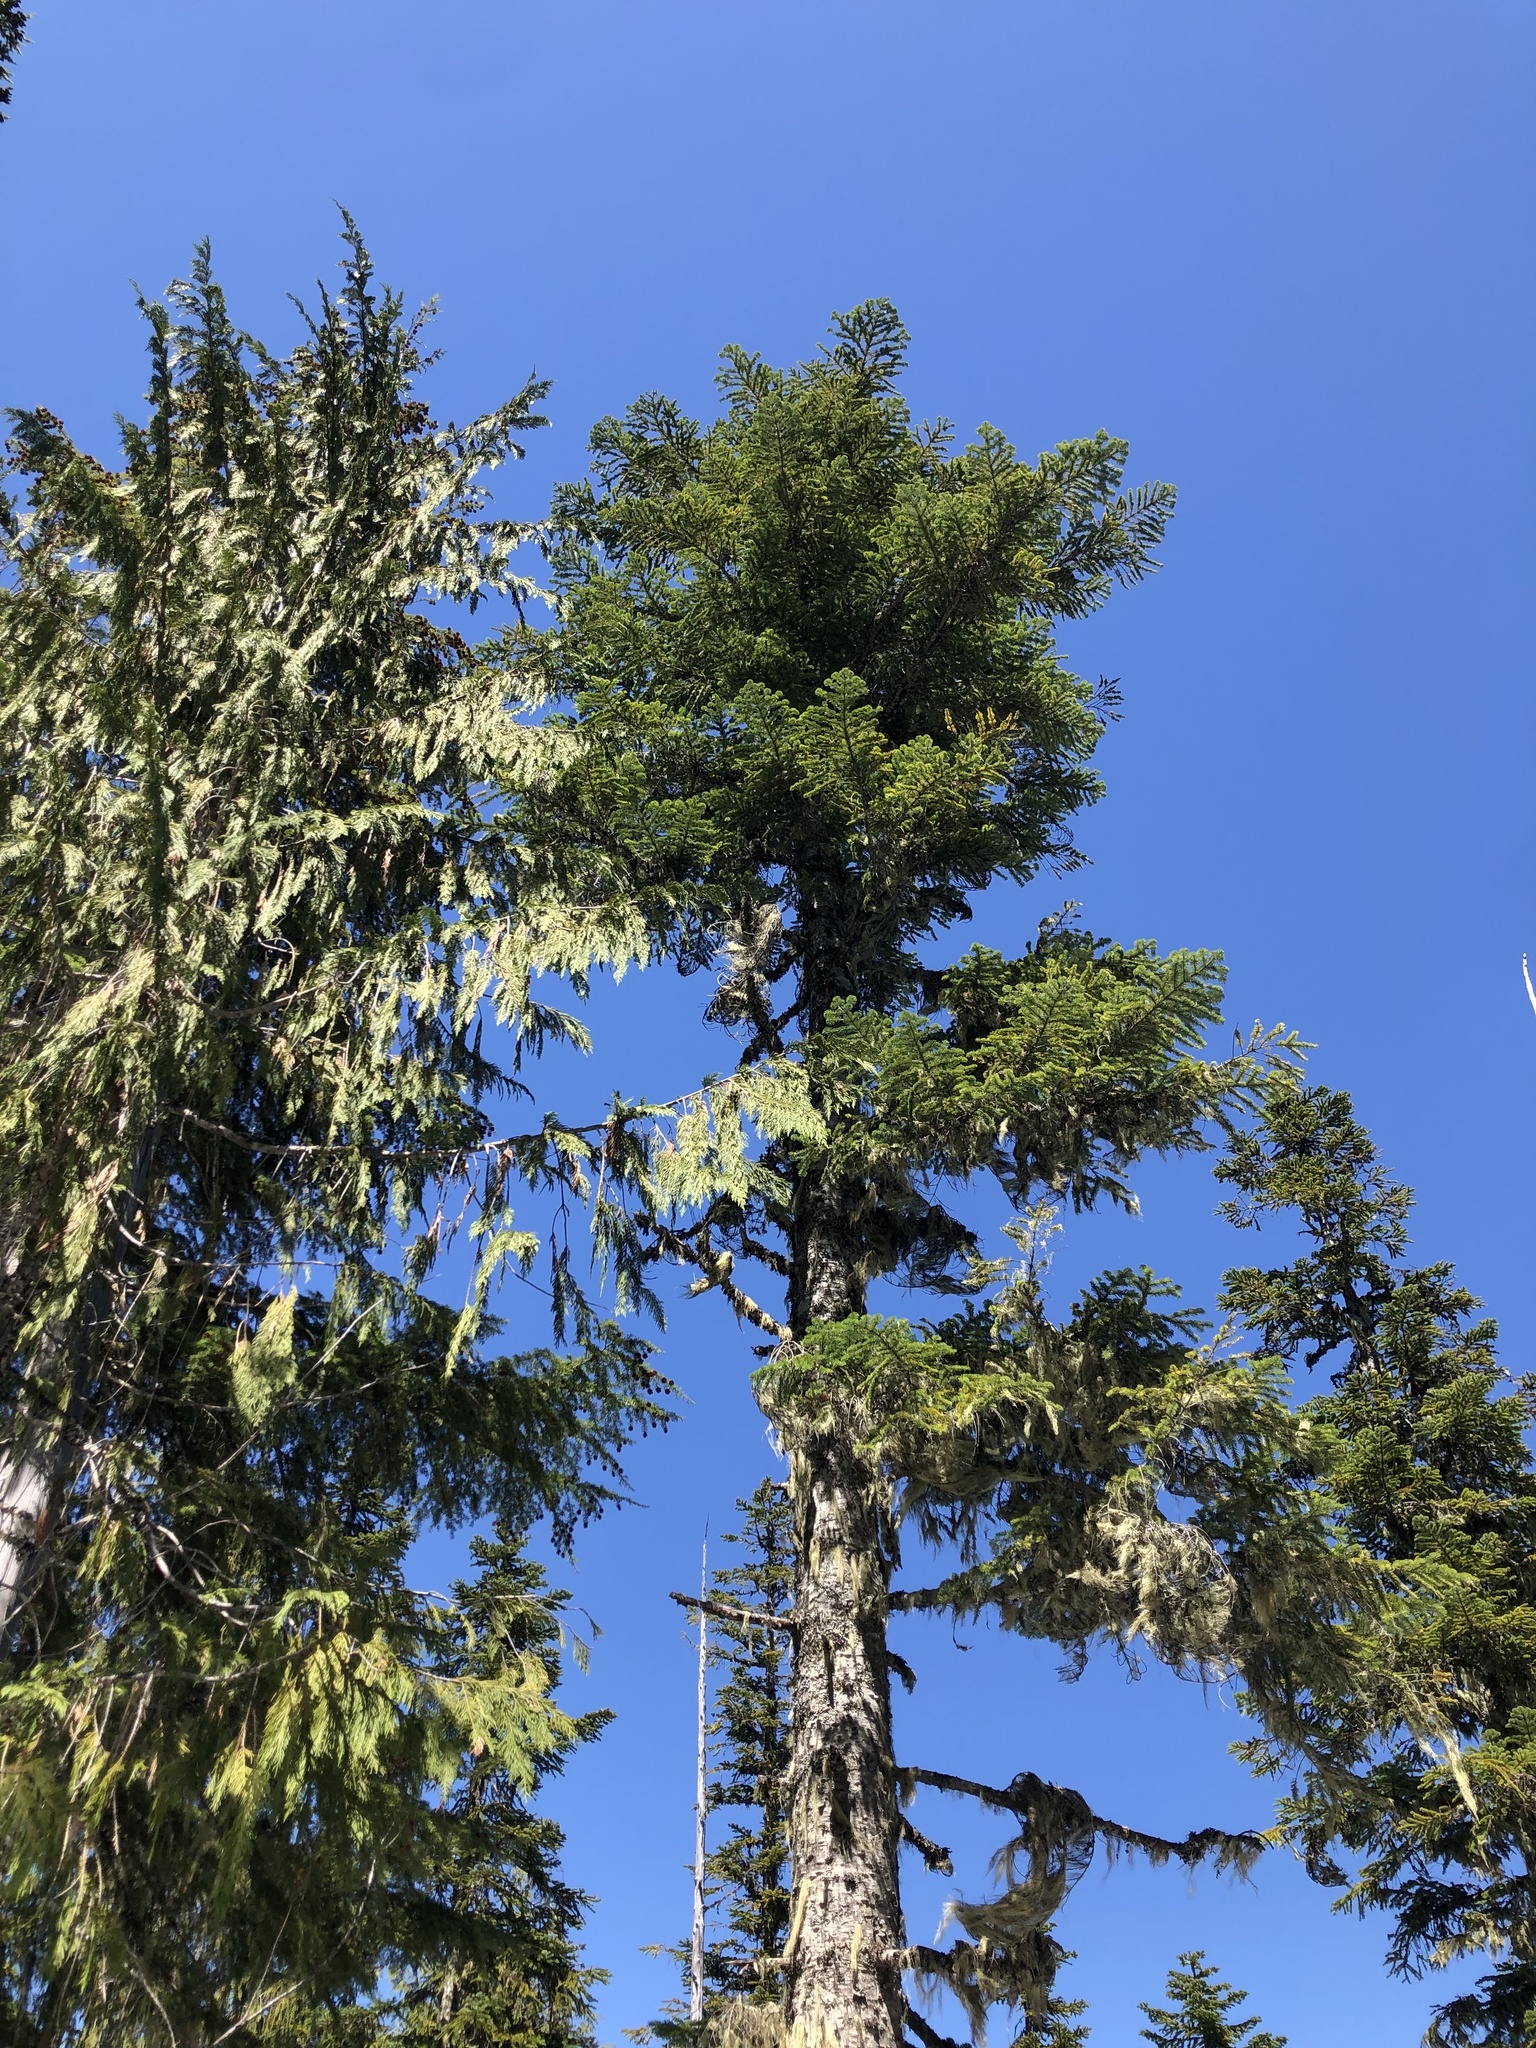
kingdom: Plantae
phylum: Tracheophyta
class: Pinopsida
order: Pinales
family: Pinaceae
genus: Abies
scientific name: Abies amabilis
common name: Pacific silver fir
